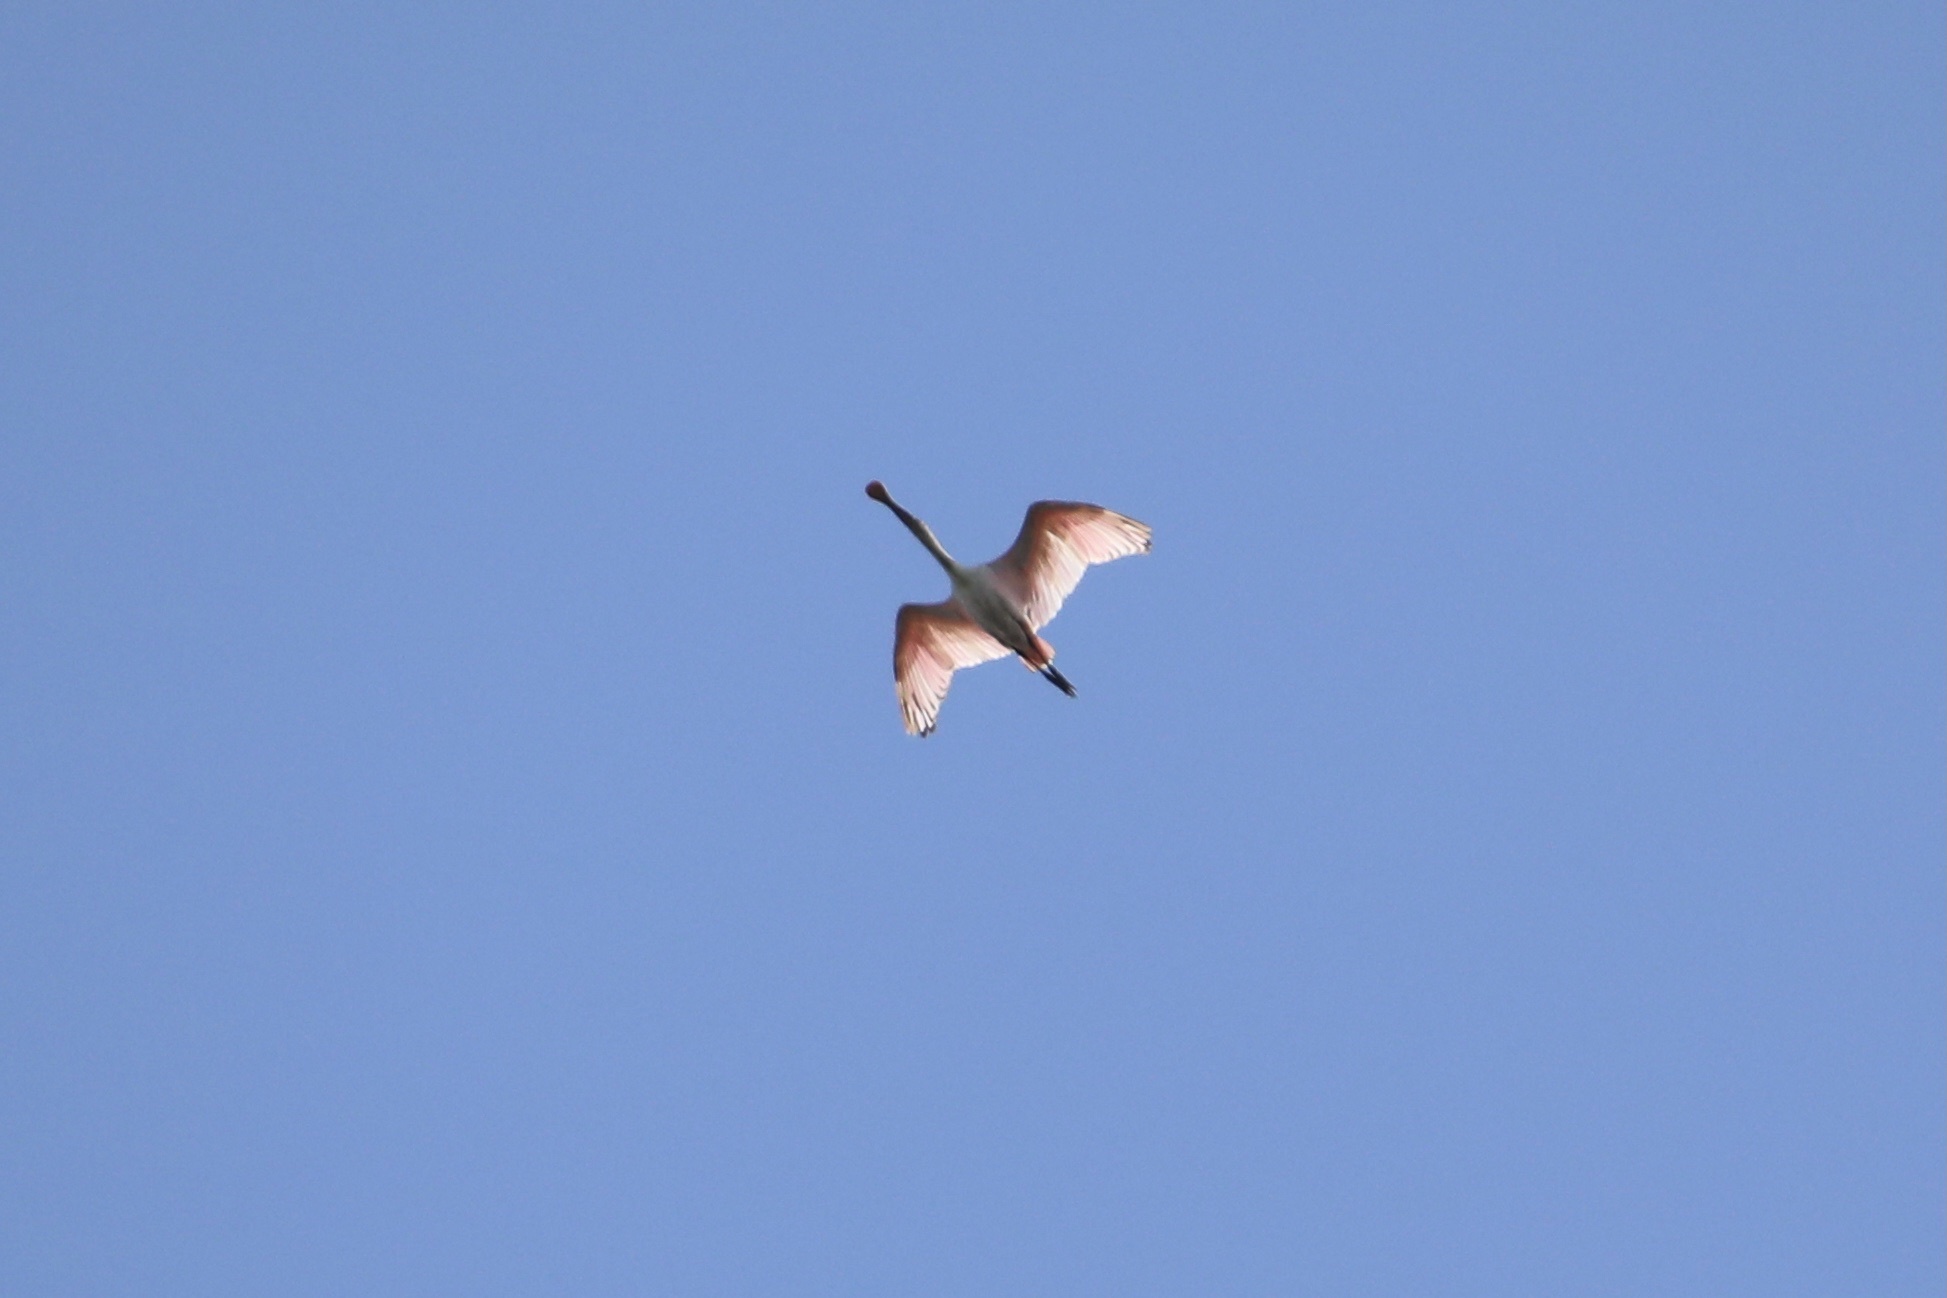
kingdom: Animalia
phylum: Chordata
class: Aves
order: Pelecaniformes
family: Threskiornithidae
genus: Platalea
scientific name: Platalea ajaja
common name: Roseate spoonbill
